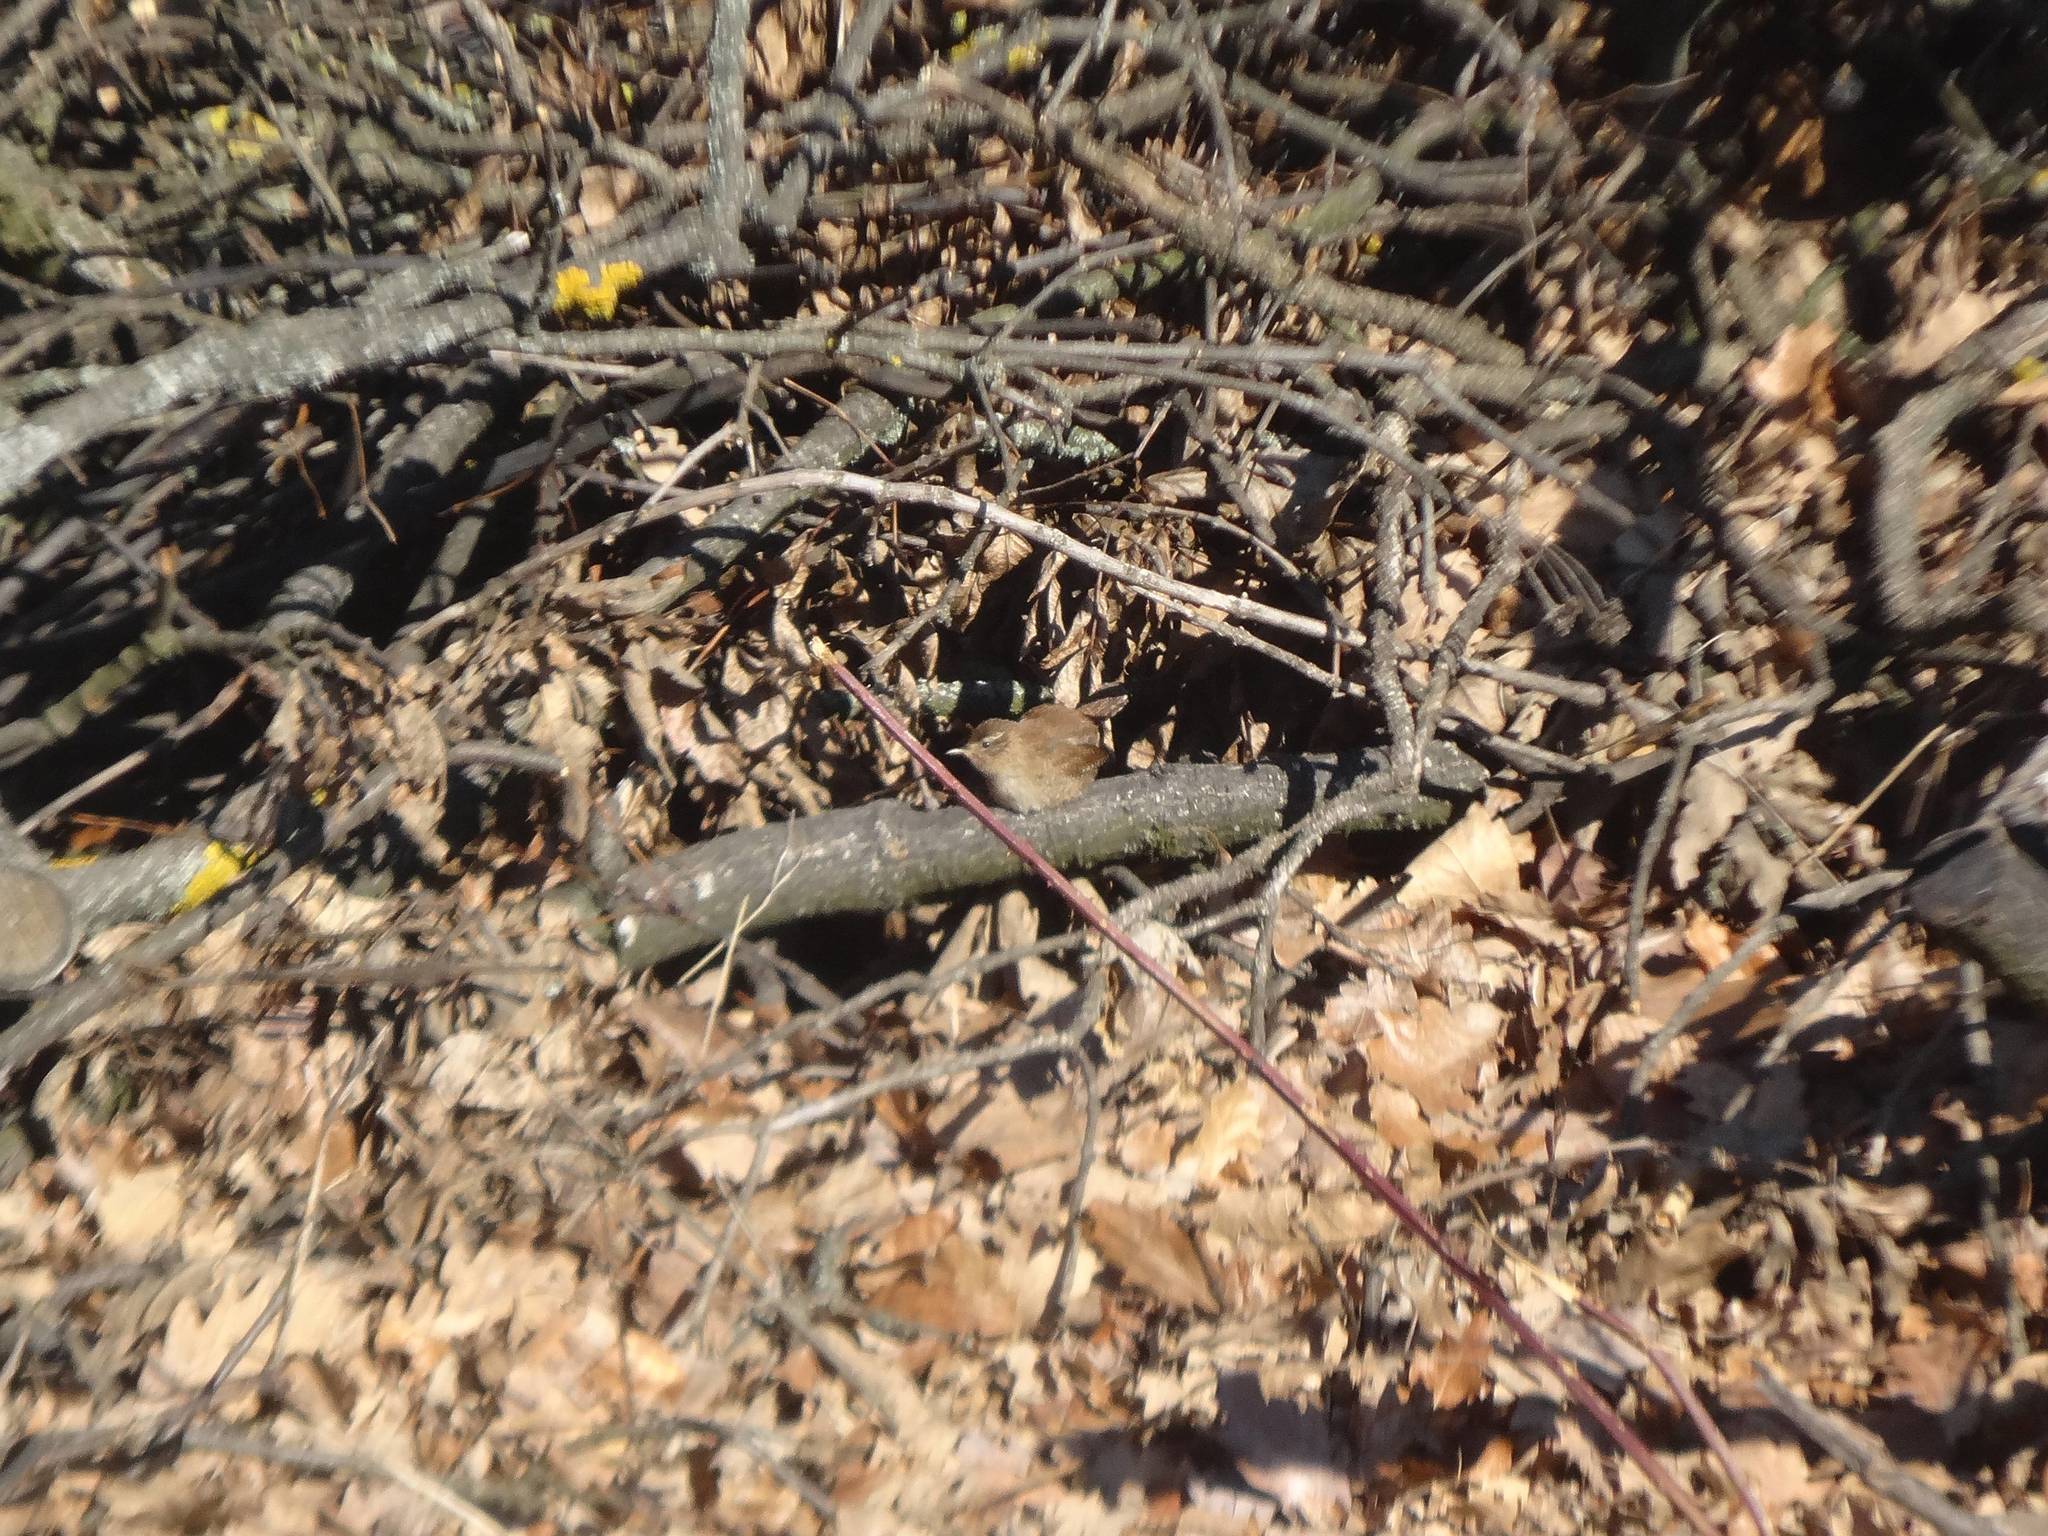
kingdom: Animalia
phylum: Chordata
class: Aves
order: Passeriformes
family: Troglodytidae
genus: Troglodytes
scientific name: Troglodytes troglodytes
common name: Eurasian wren
